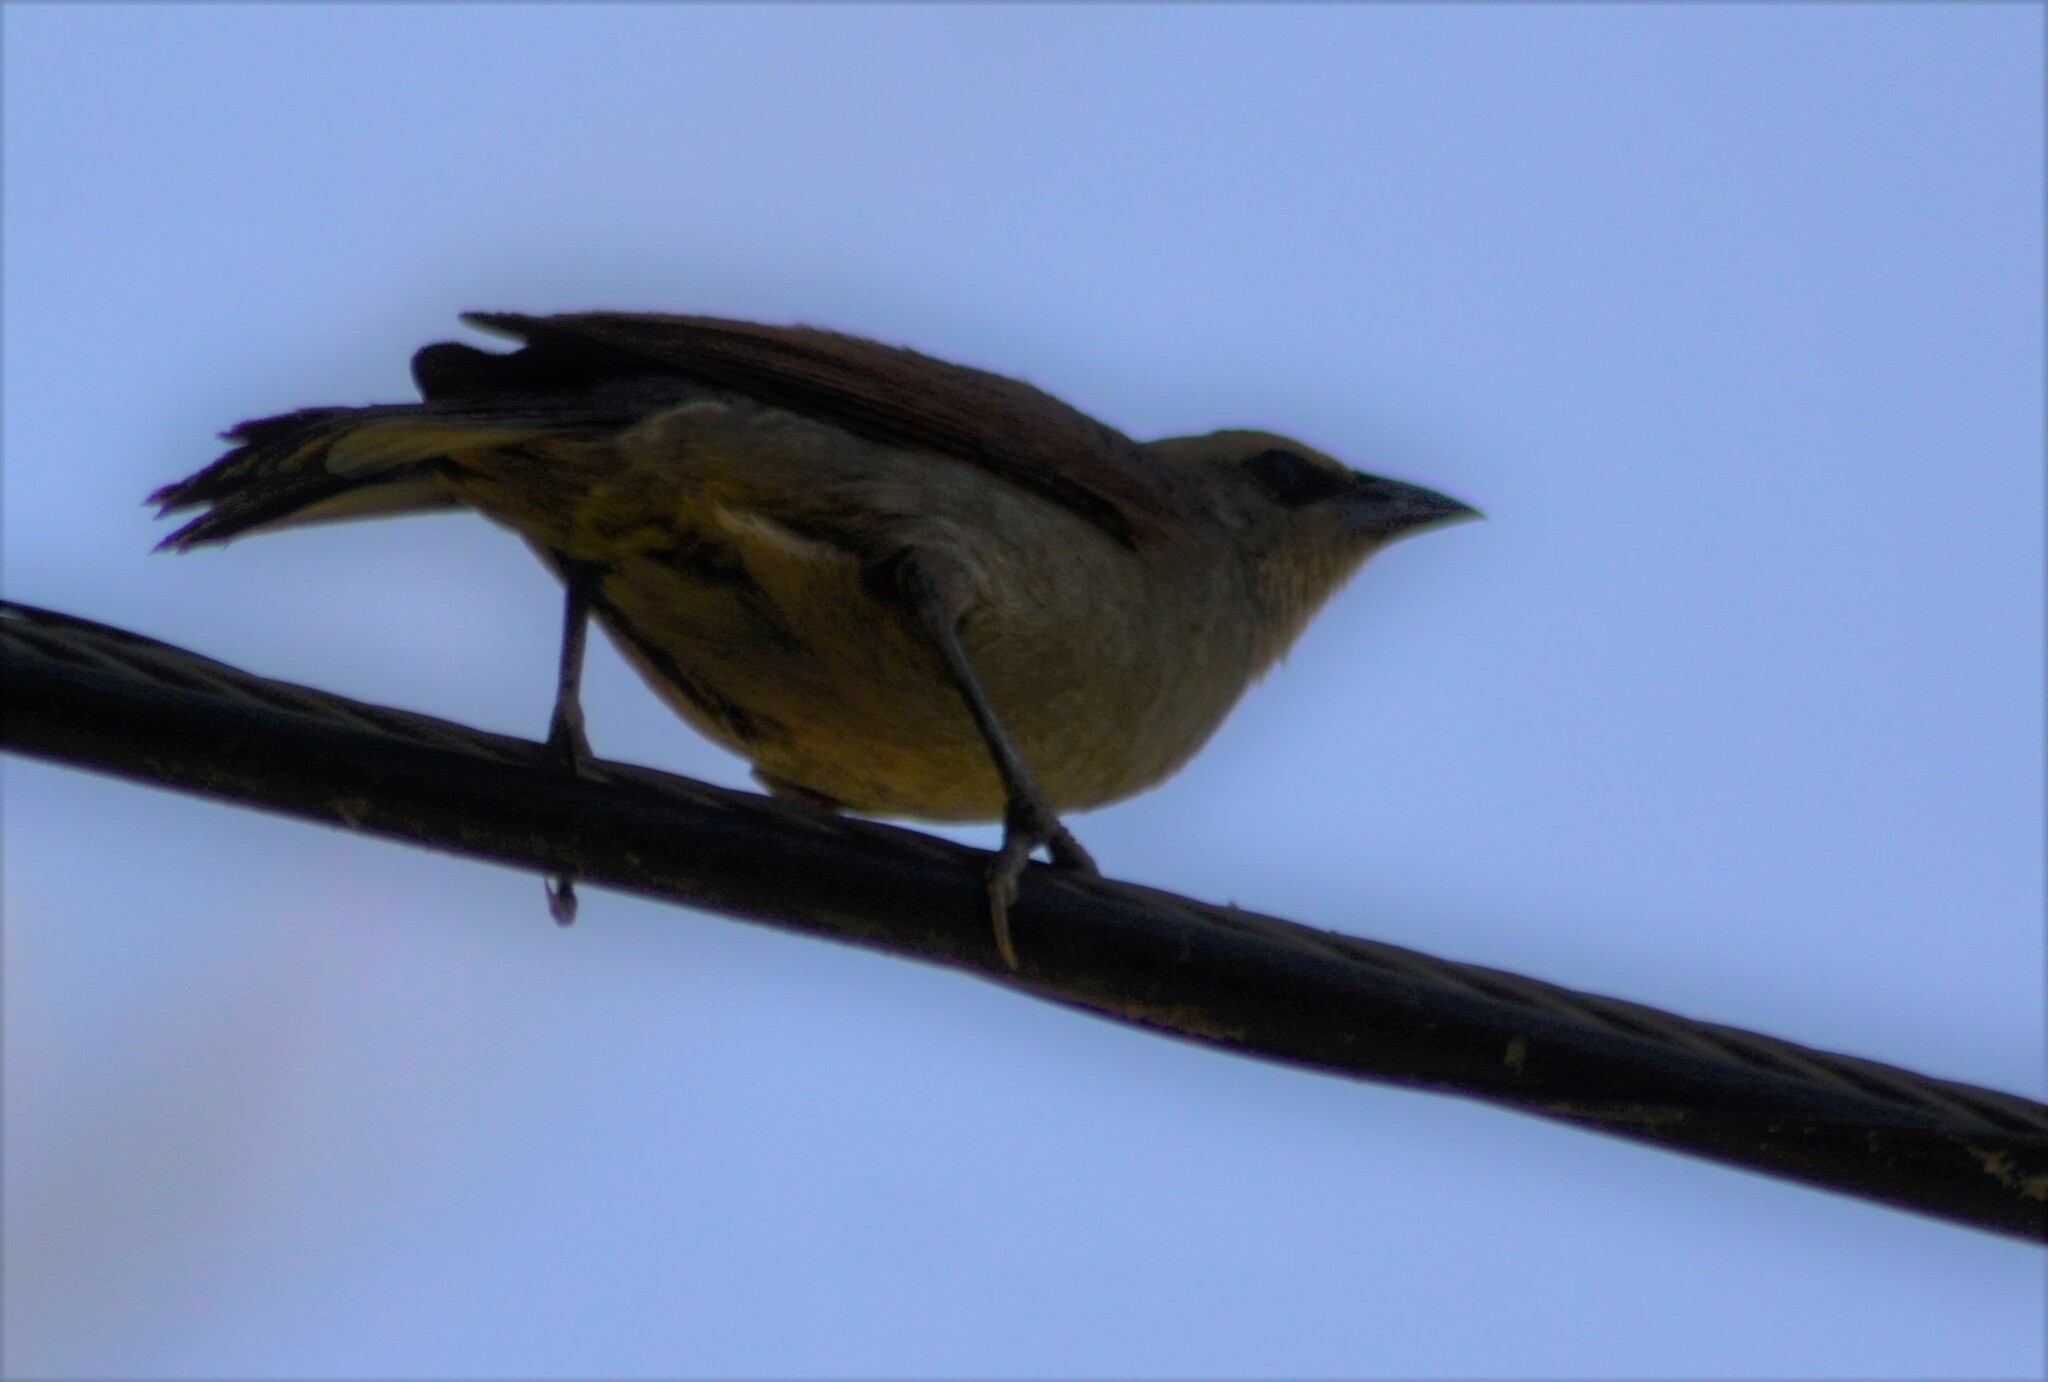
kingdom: Animalia
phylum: Chordata
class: Aves
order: Passeriformes
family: Icteridae
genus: Agelaioides
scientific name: Agelaioides badius
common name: Baywing
